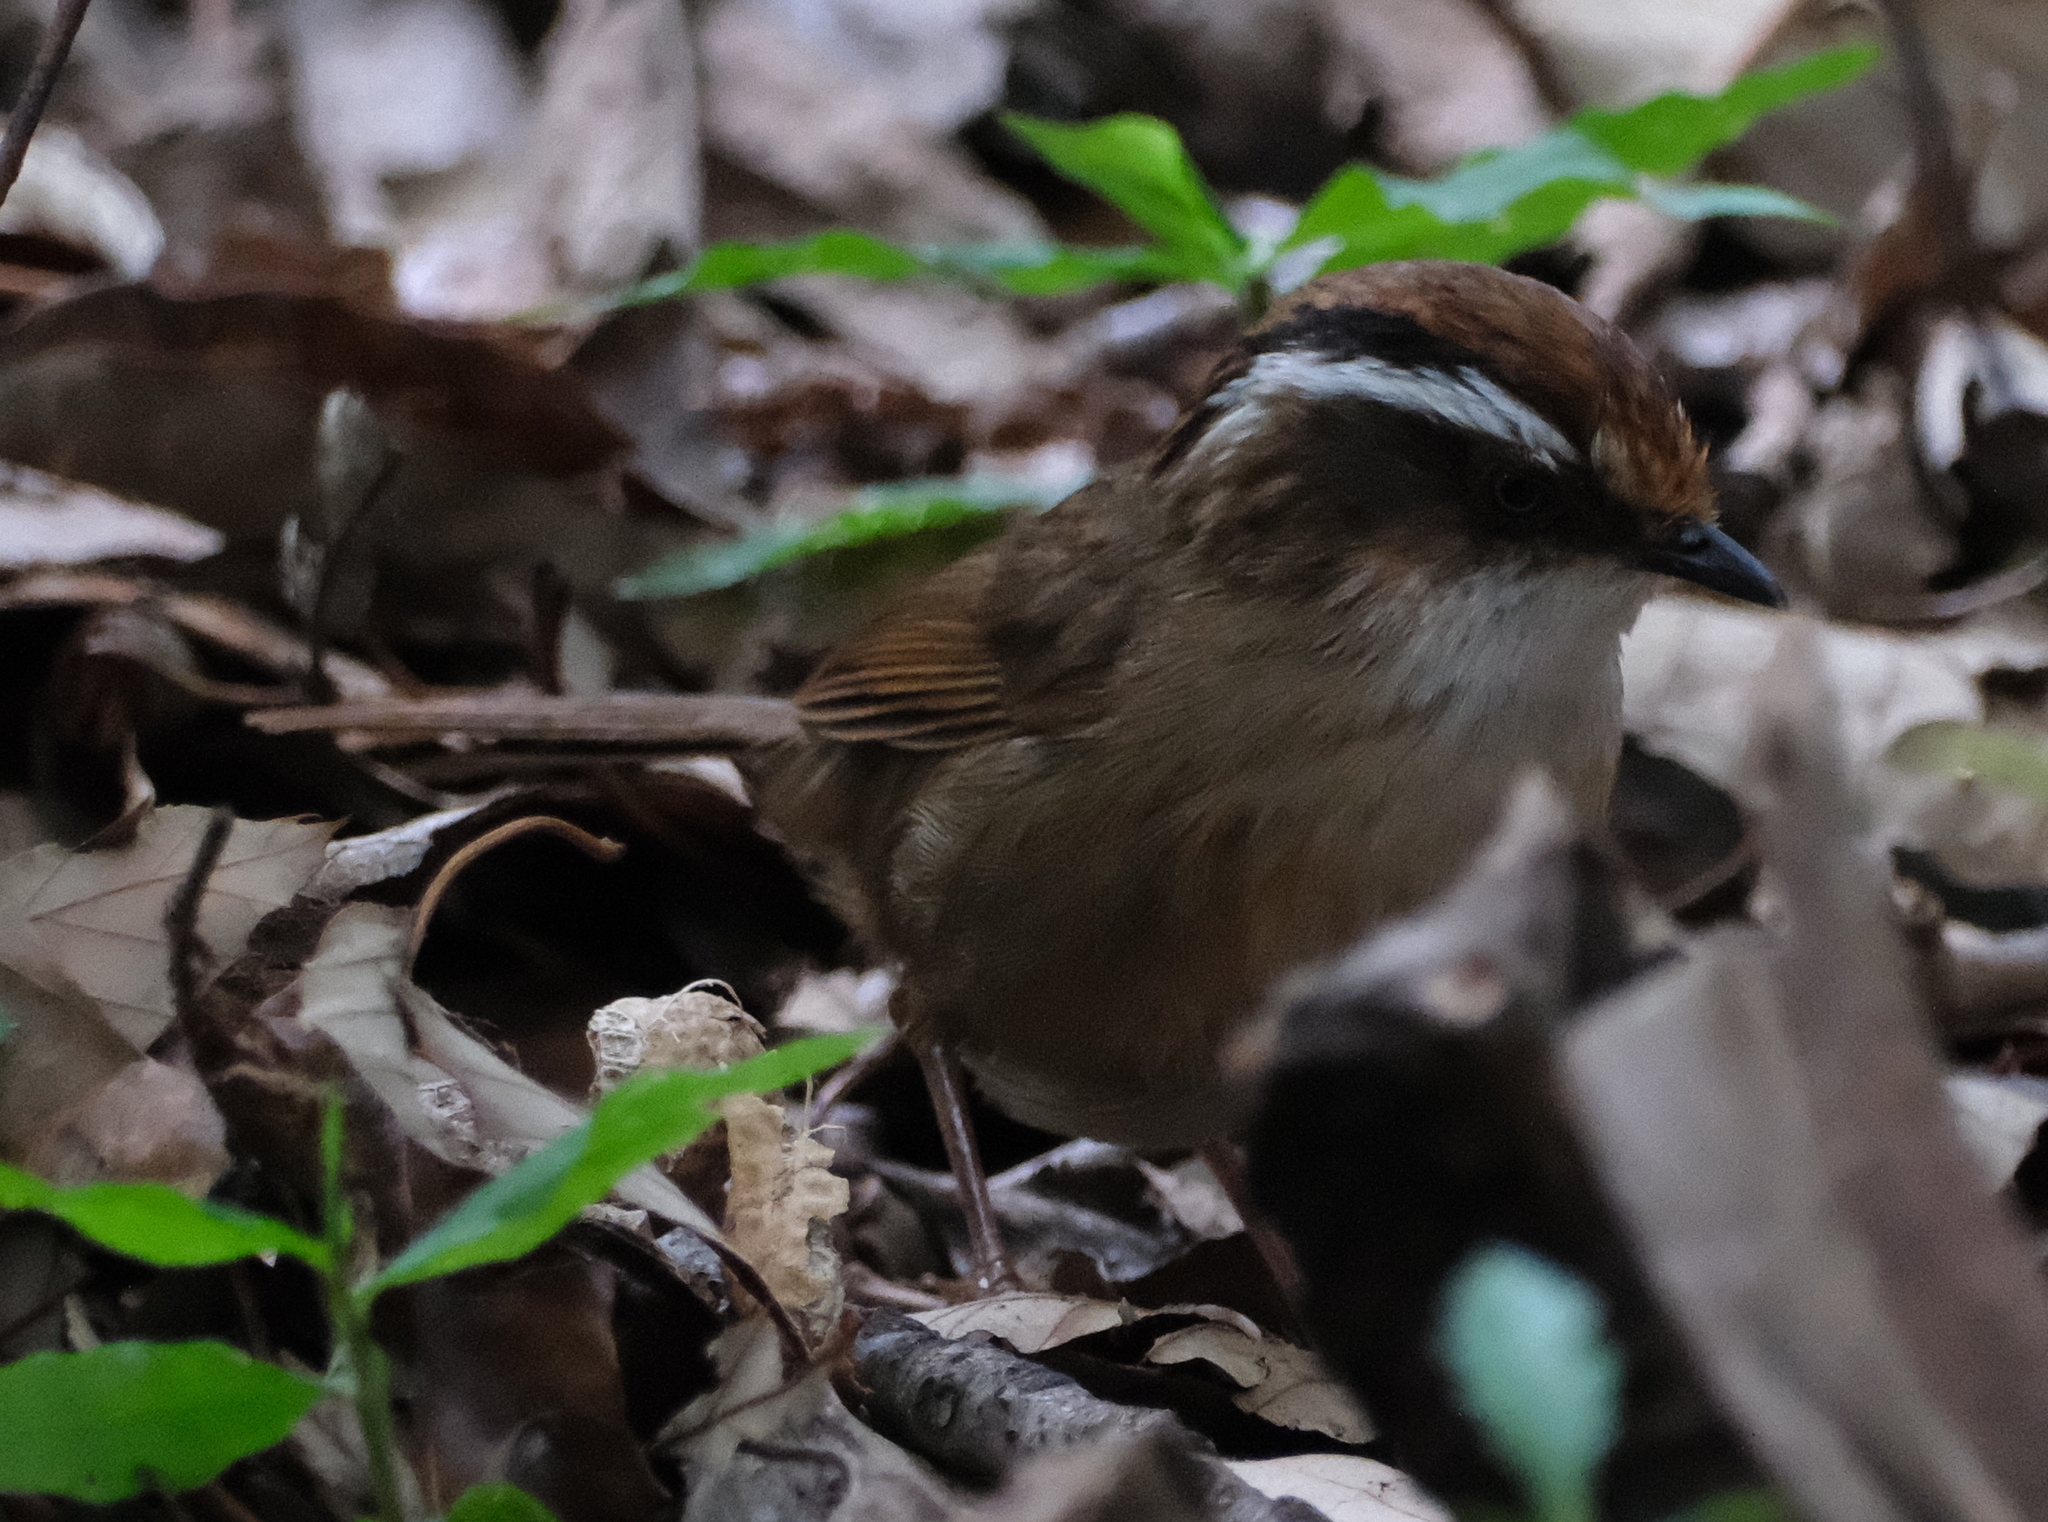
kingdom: Animalia
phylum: Chordata
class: Aves
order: Passeriformes
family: Pellorneidae
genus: Alcippe
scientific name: Alcippe dubia
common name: Rusty-capped fulvetta
